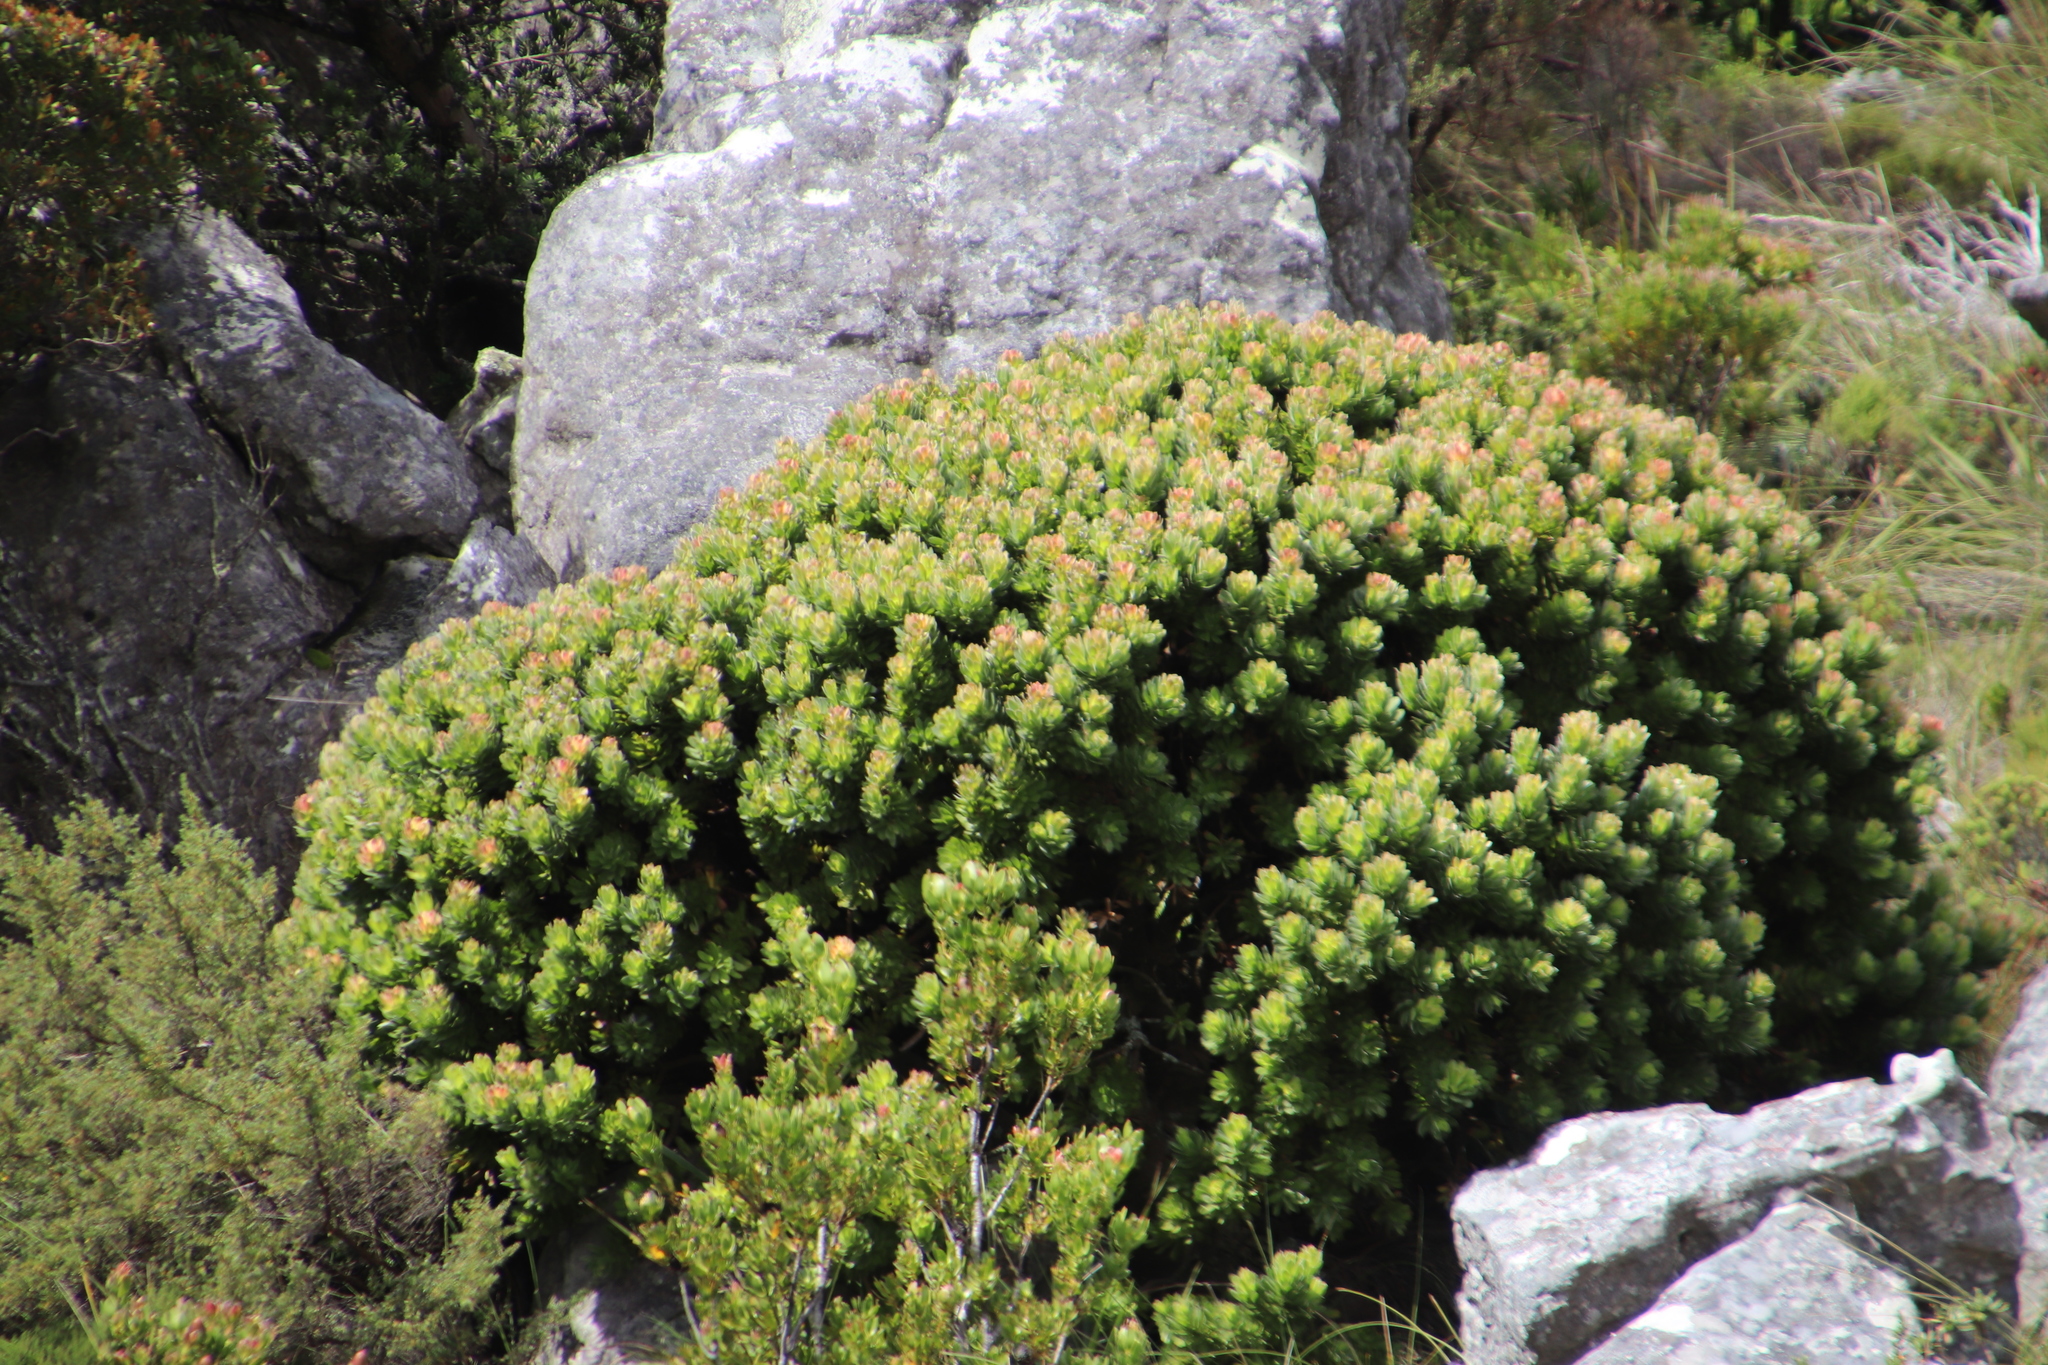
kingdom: Plantae
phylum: Tracheophyta
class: Magnoliopsida
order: Proteales
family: Proteaceae
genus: Mimetes
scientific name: Mimetes fimbriifolius
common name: Fringed bottlebrush
